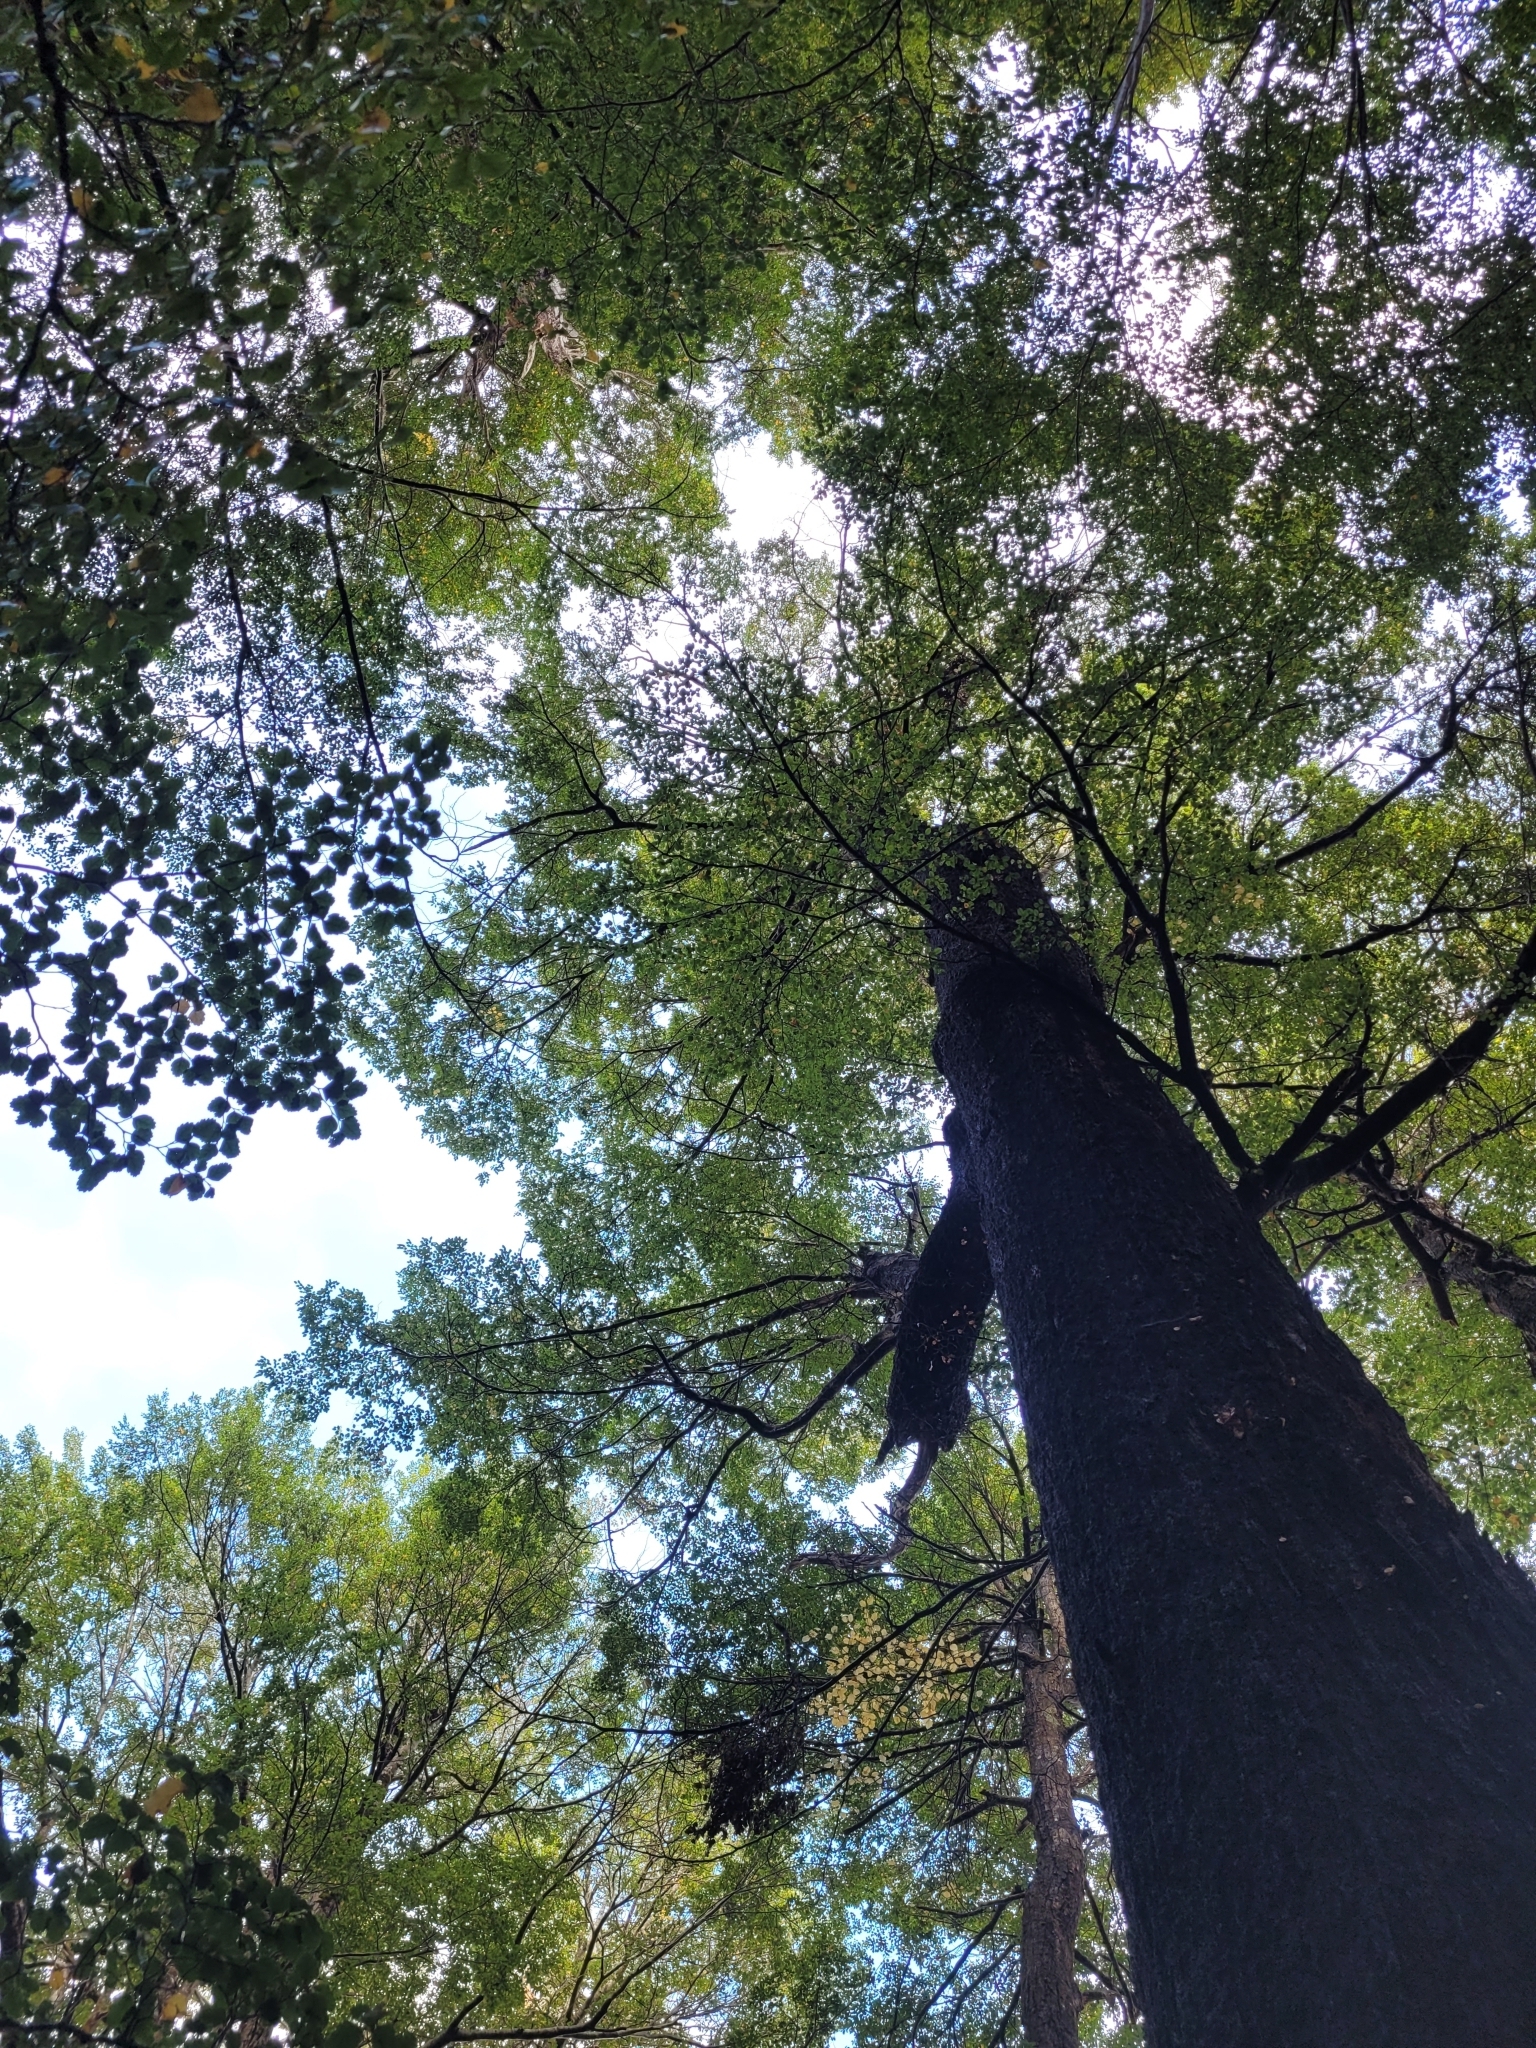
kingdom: Plantae
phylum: Tracheophyta
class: Magnoliopsida
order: Fagales
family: Nothofagaceae
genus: Nothofagus
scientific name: Nothofagus fusca
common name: Red beech
